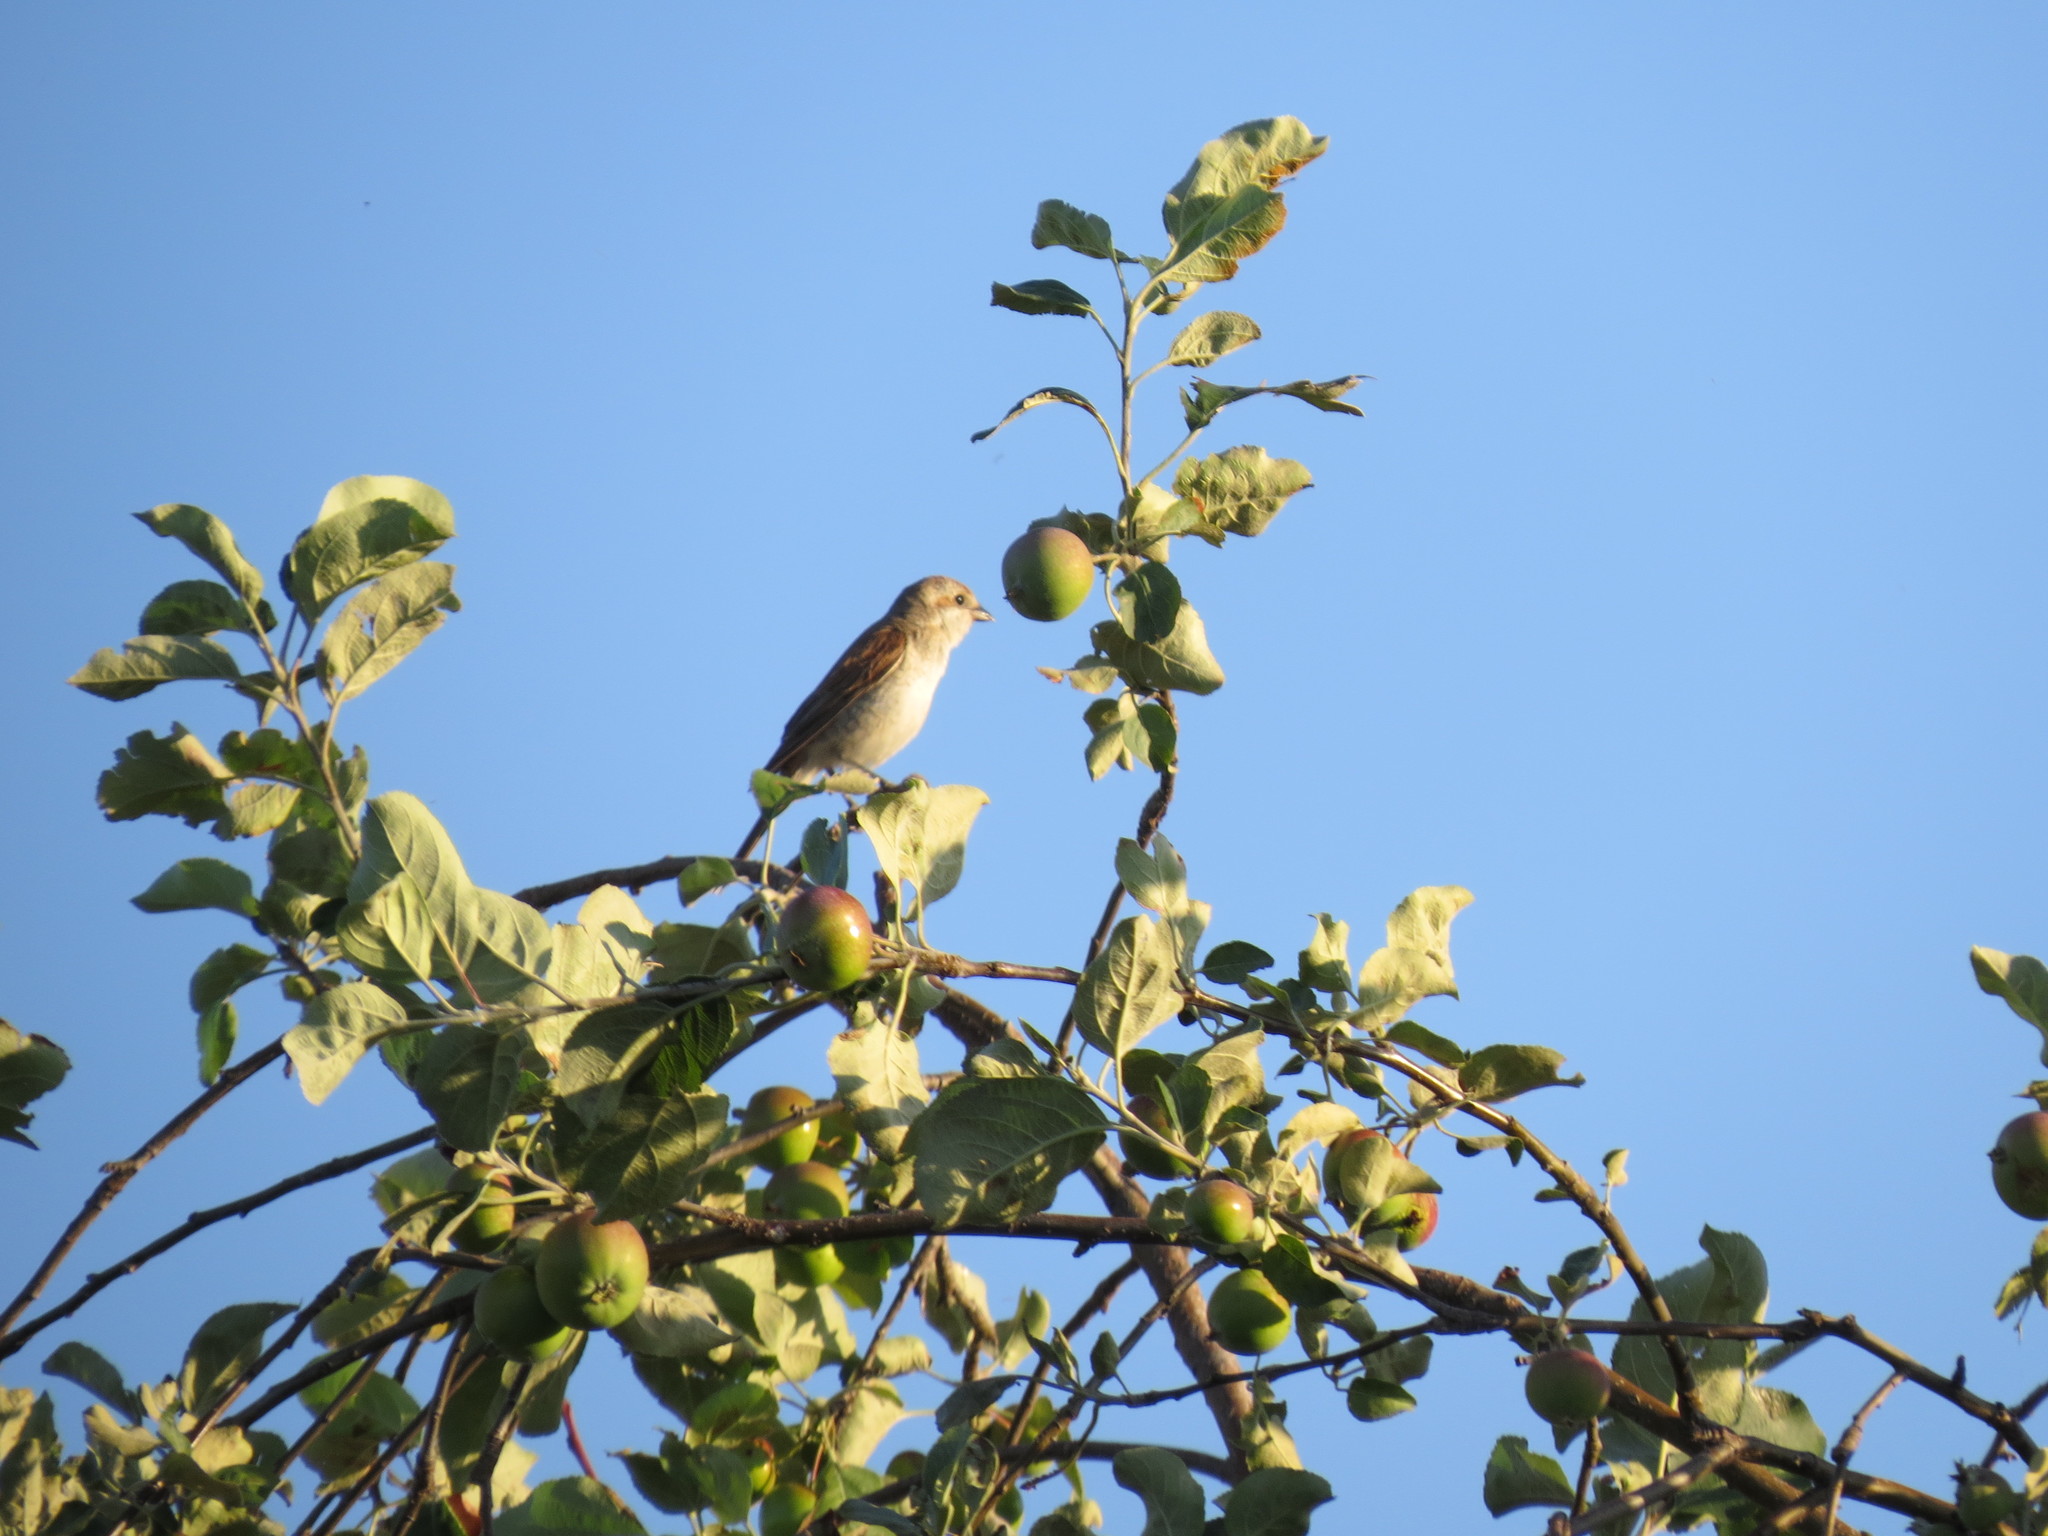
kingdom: Animalia
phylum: Chordata
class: Aves
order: Passeriformes
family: Laniidae
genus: Lanius
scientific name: Lanius collurio
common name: Red-backed shrike
